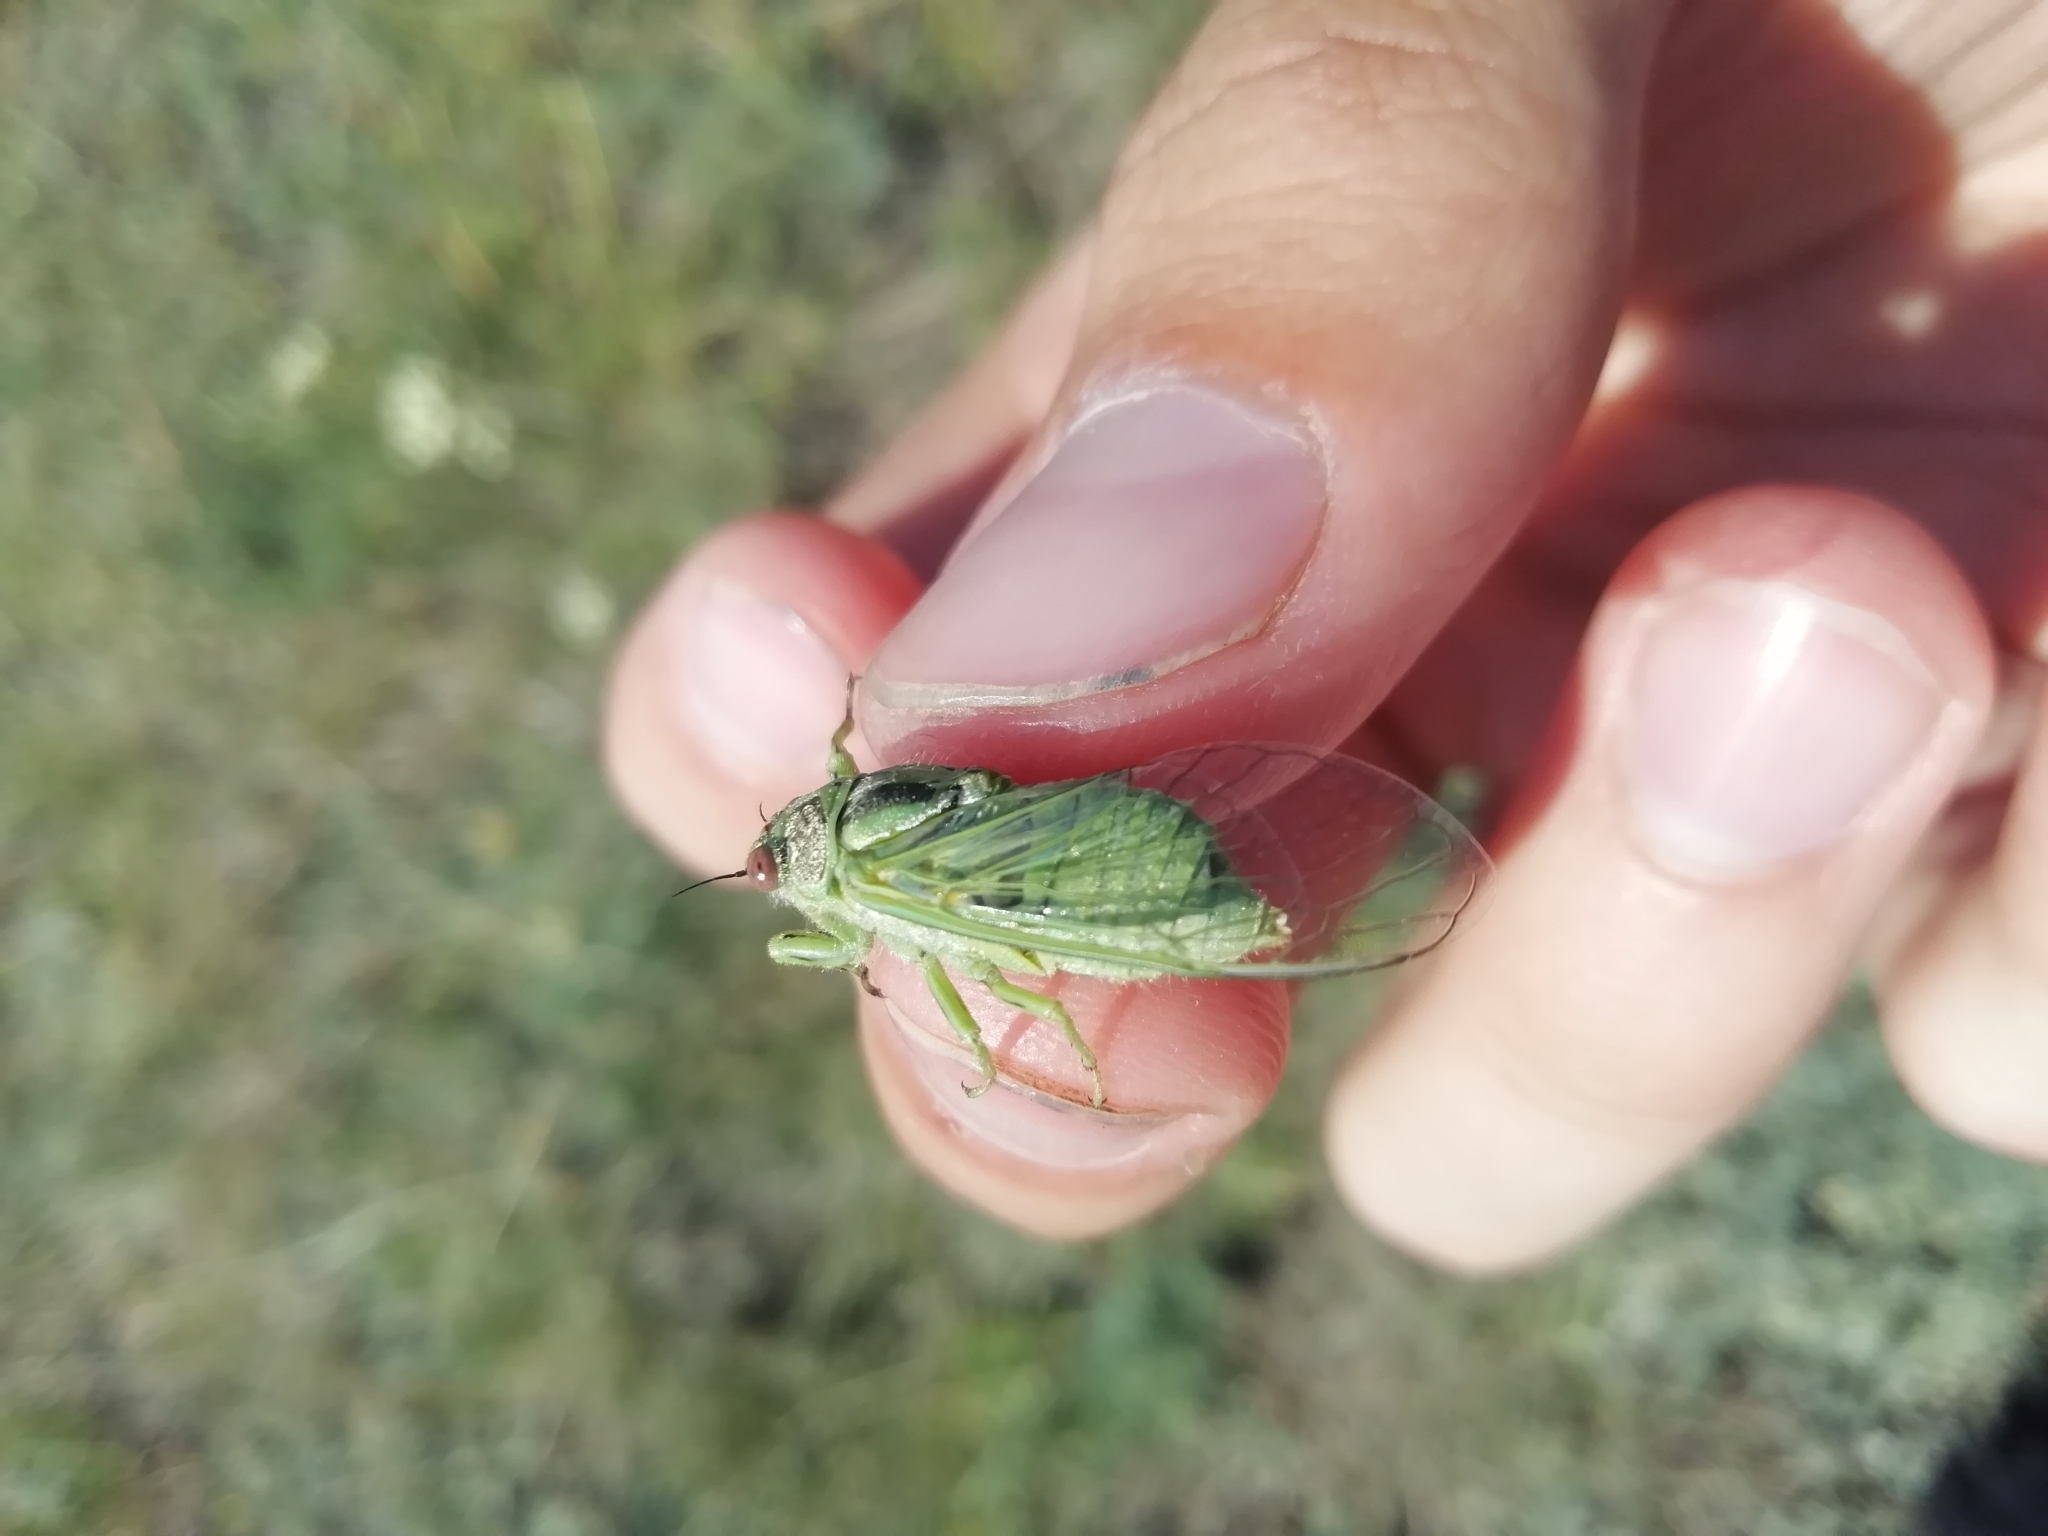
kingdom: Animalia
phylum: Arthropoda
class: Insecta
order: Hemiptera
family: Cicadidae
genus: Tettigetta
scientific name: Tettigetta prasina
